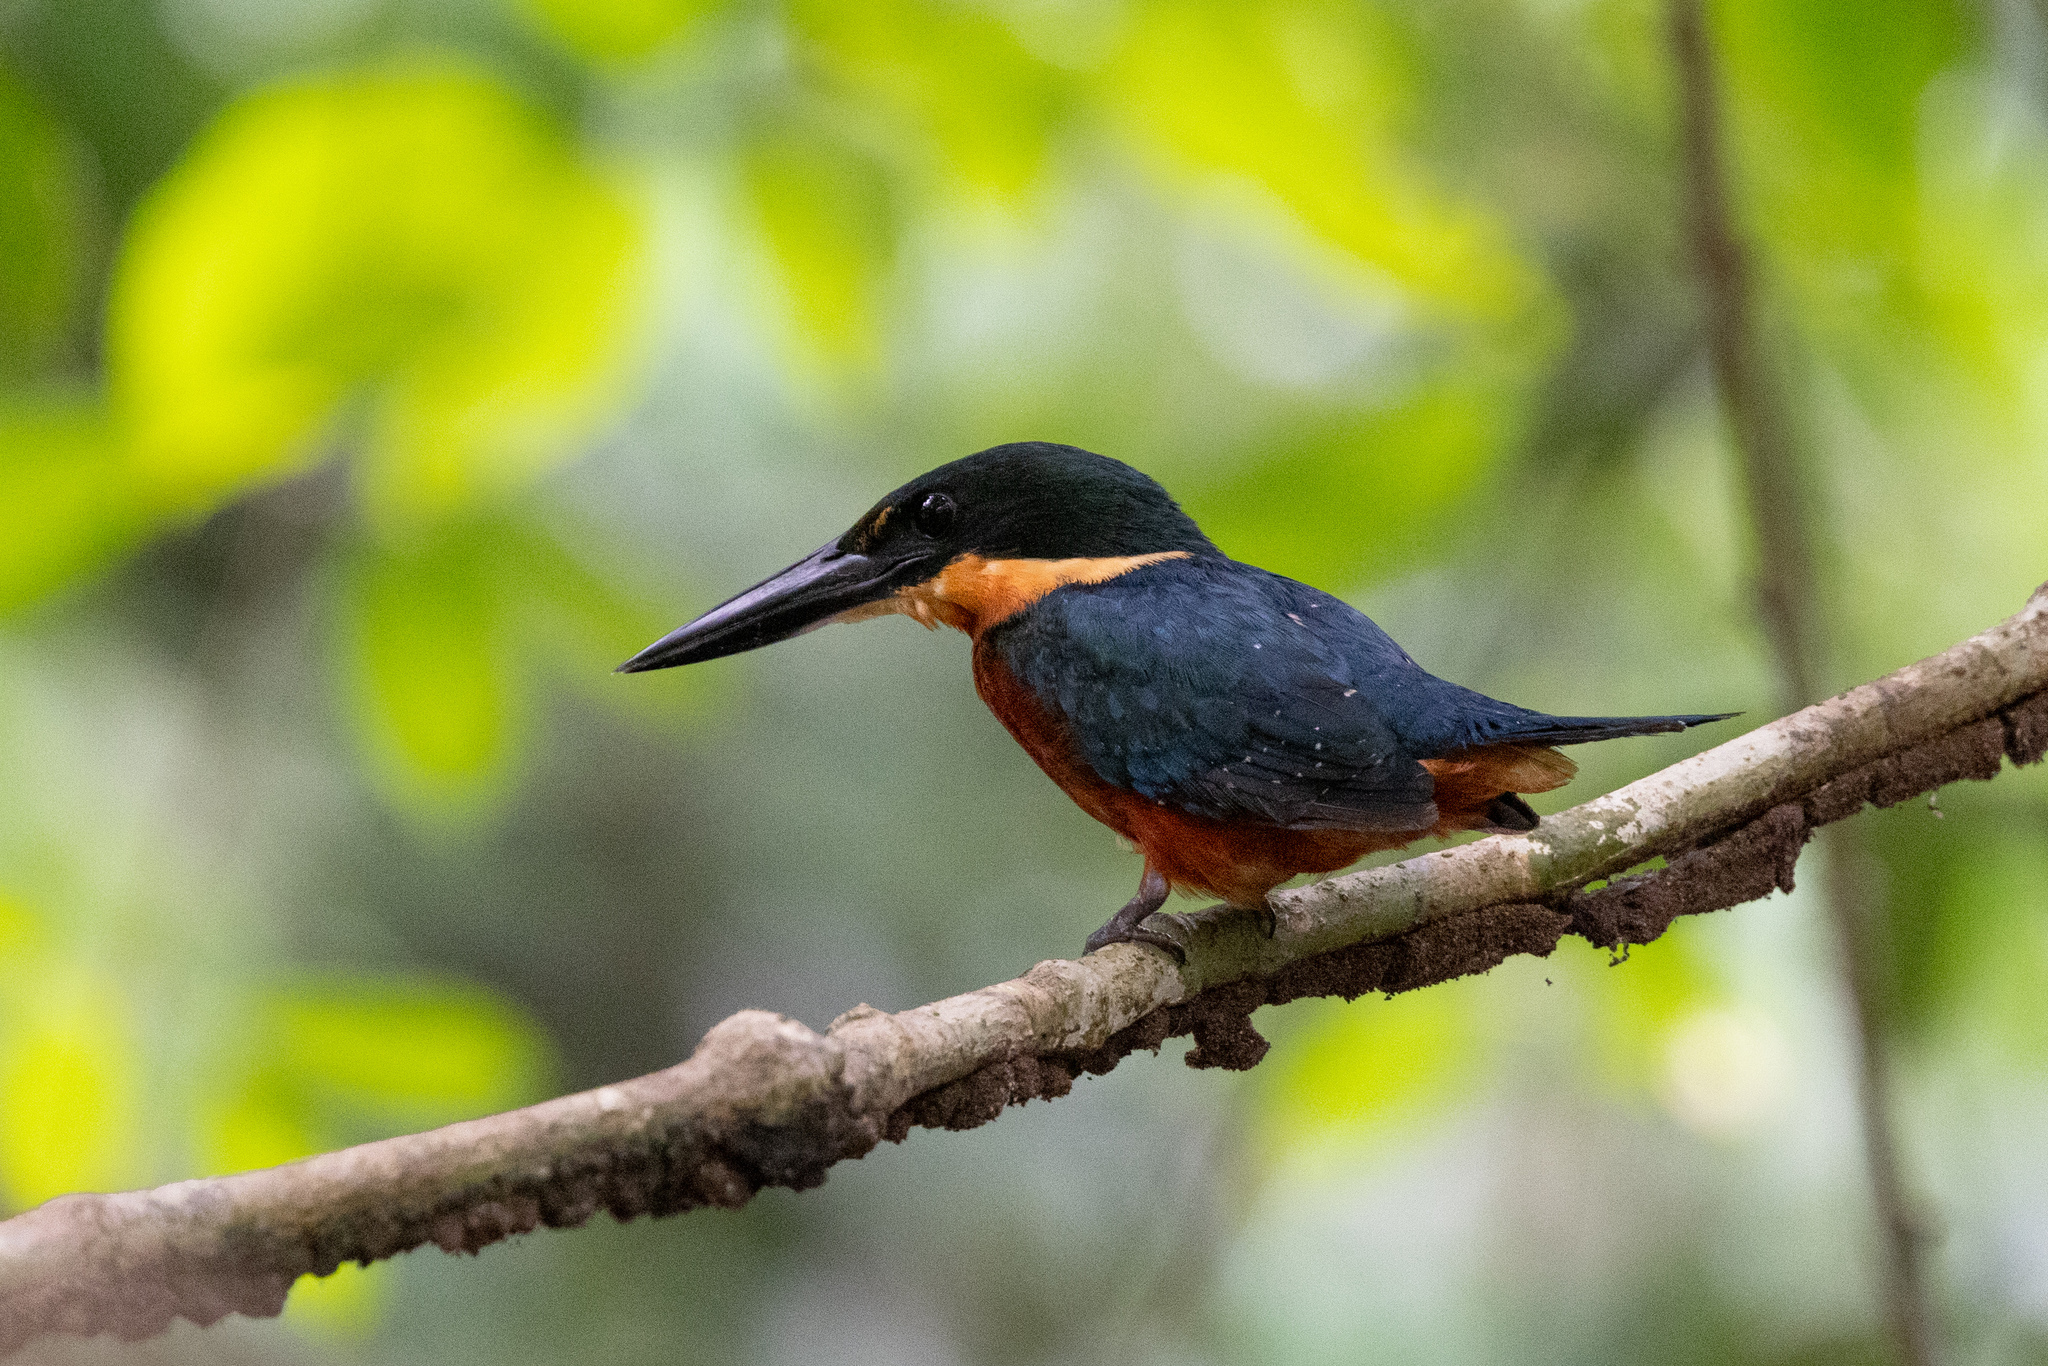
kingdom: Animalia
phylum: Chordata
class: Aves
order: Coraciiformes
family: Alcedinidae
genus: Chloroceryle
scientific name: Chloroceryle inda
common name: Green-and-rufous kingfisher
